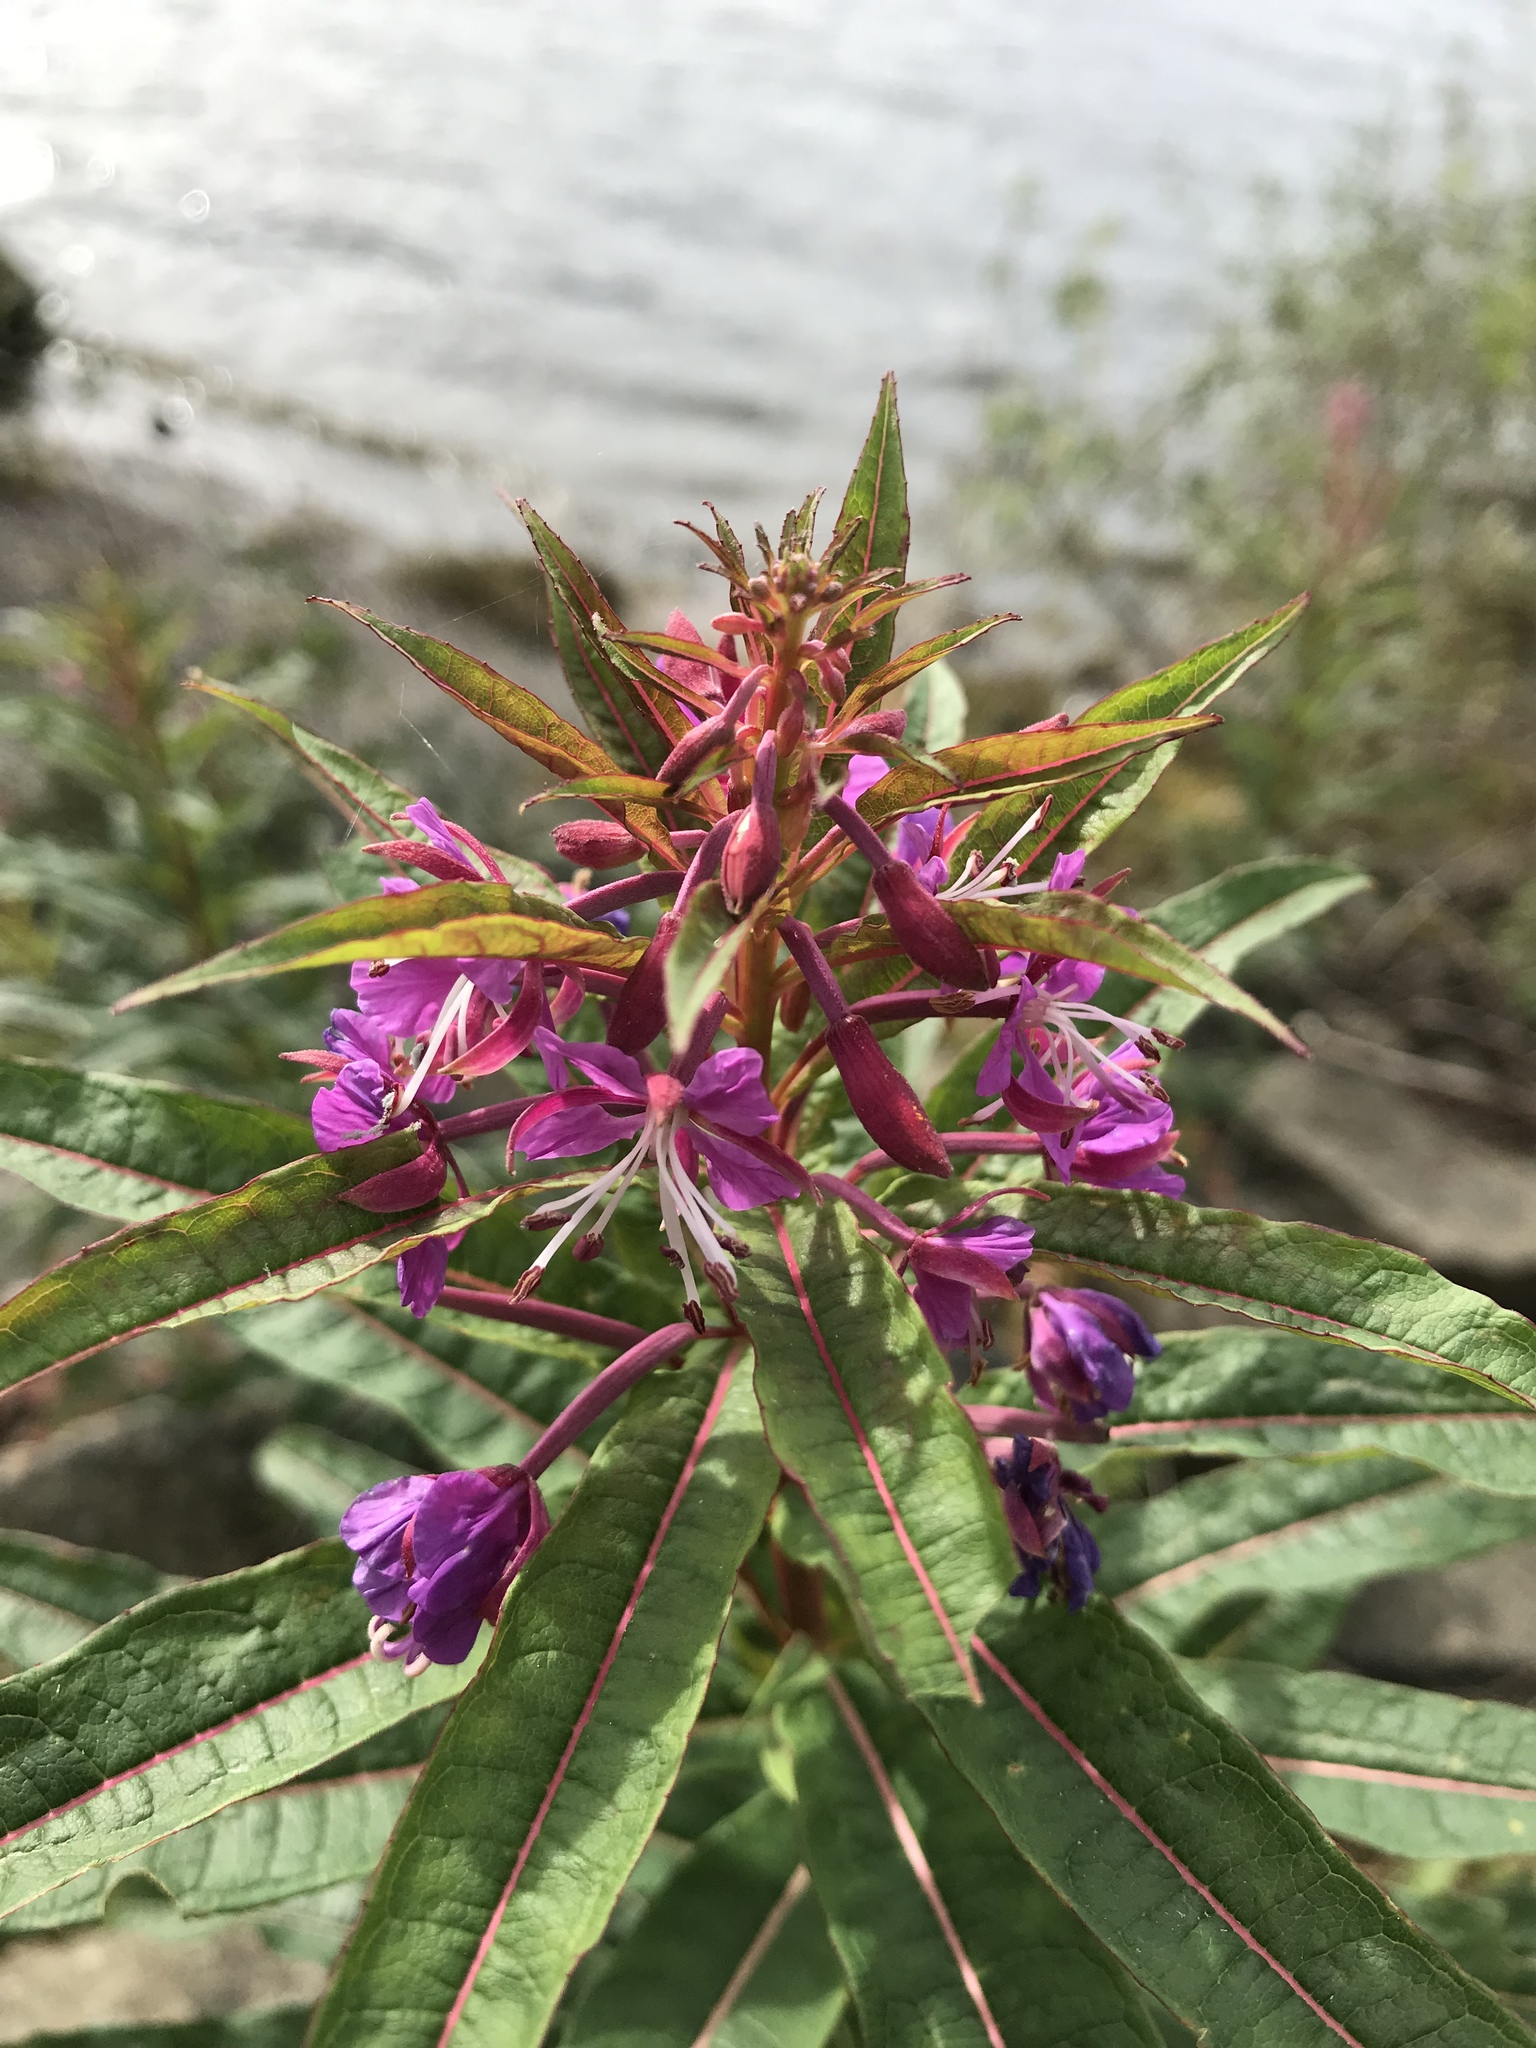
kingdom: Plantae
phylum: Tracheophyta
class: Magnoliopsida
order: Myrtales
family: Onagraceae
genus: Chamaenerion
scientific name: Chamaenerion angustifolium
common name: Fireweed
